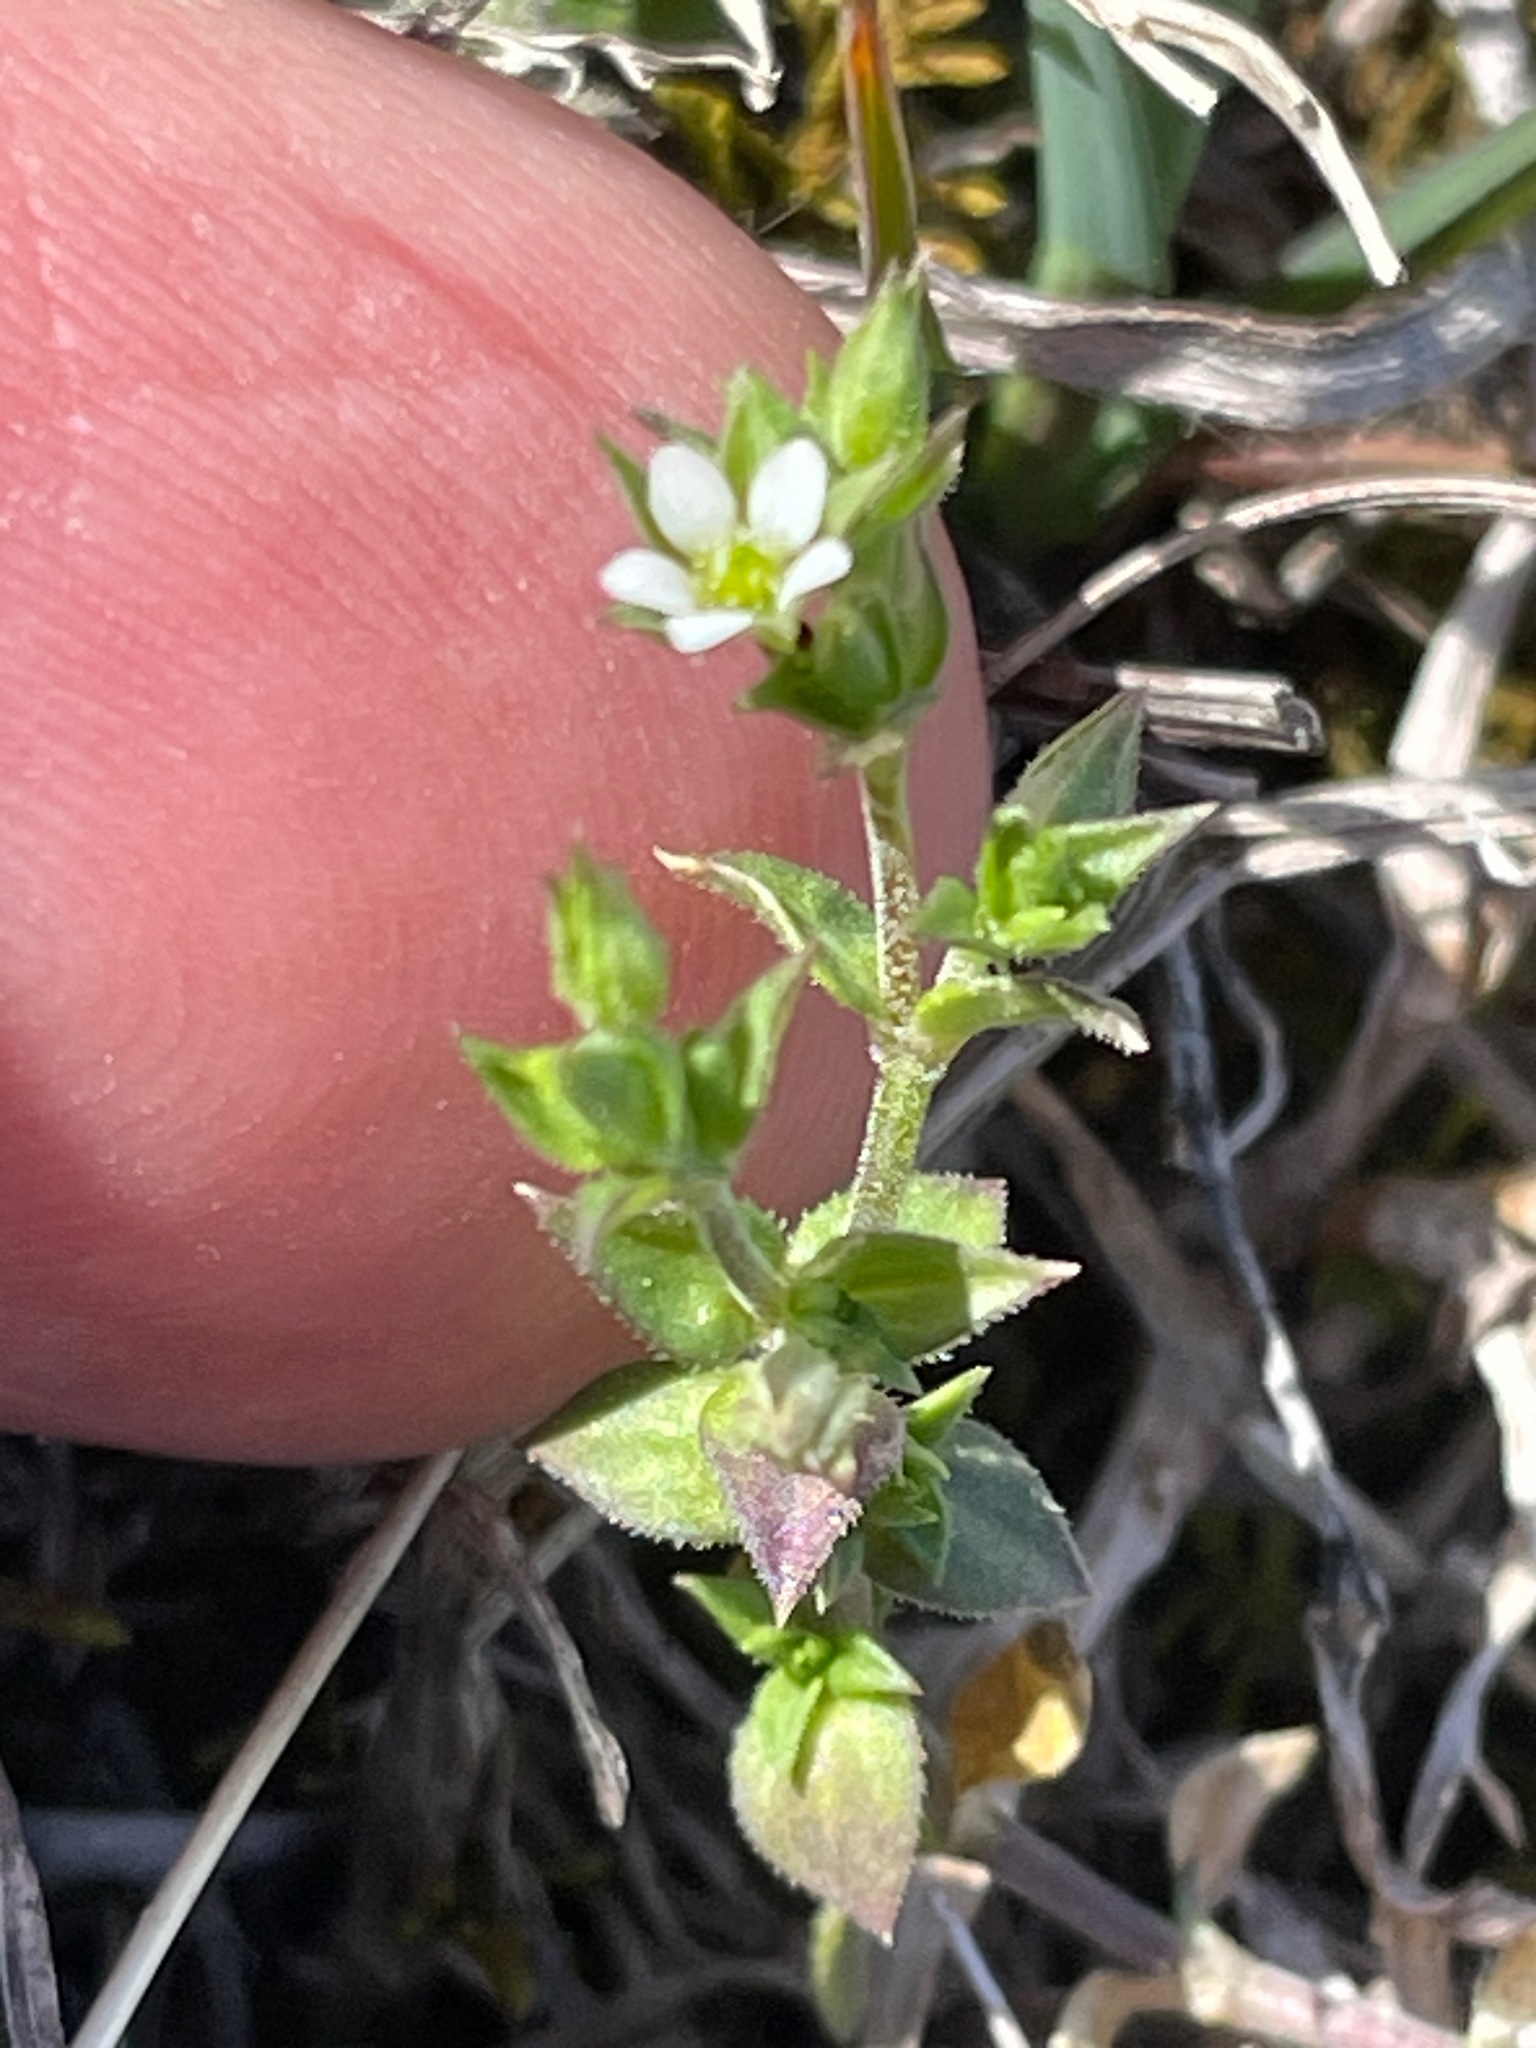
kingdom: Plantae
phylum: Tracheophyta
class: Magnoliopsida
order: Caryophyllales
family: Caryophyllaceae
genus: Arenaria
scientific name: Arenaria serpyllifolia
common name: Thyme-leaved sandwort
